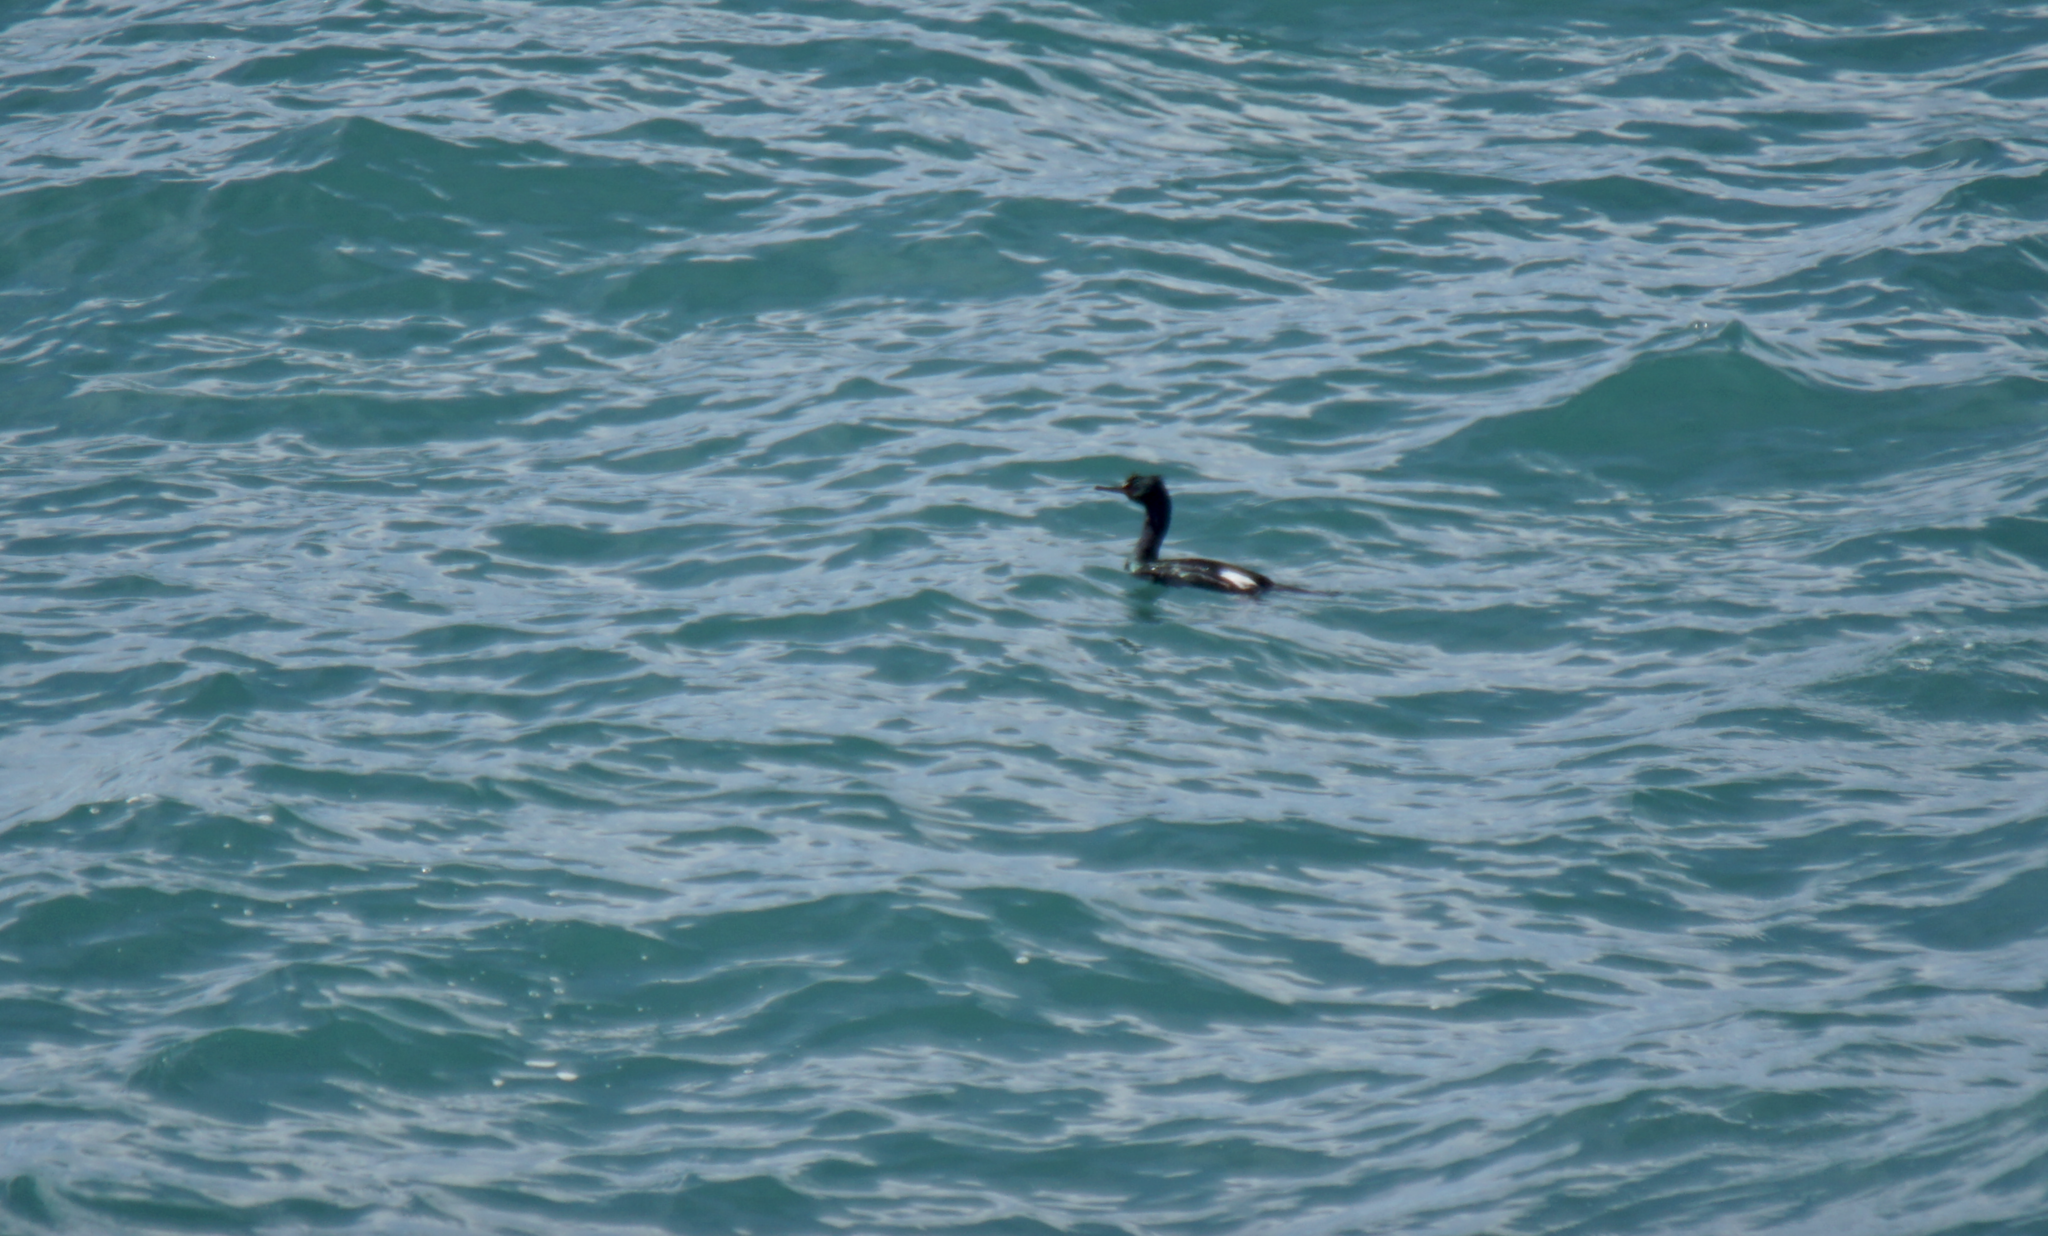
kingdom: Animalia
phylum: Chordata
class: Aves
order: Suliformes
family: Phalacrocoracidae
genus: Phalacrocorax
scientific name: Phalacrocorax pelagicus
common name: Pelagic cormorant
